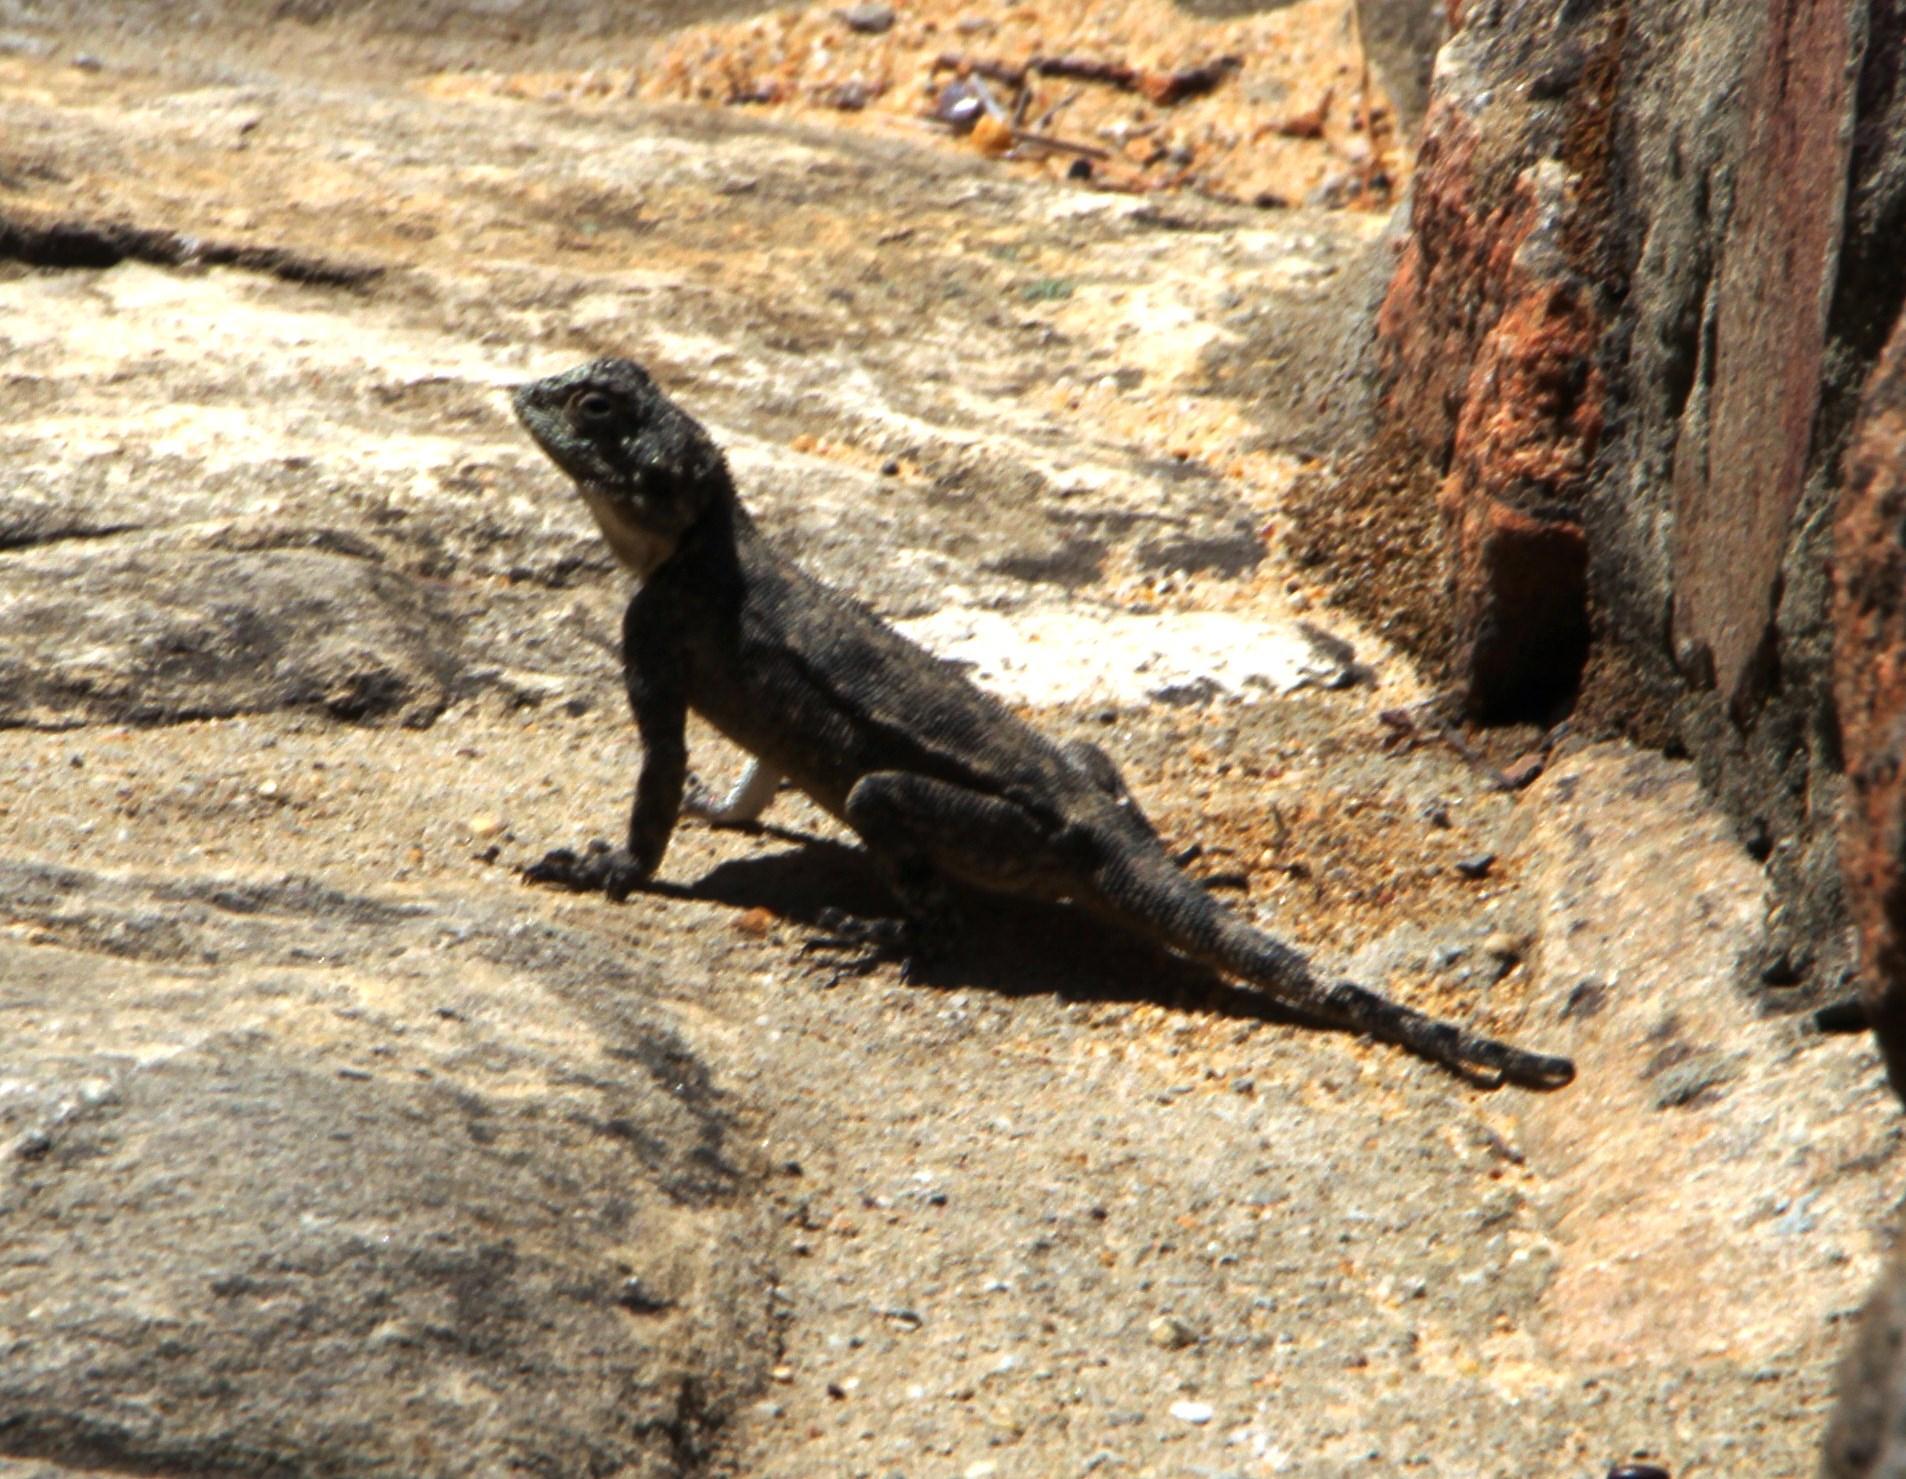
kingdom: Animalia
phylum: Chordata
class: Squamata
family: Agamidae
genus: Agama
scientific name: Agama atra
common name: Southern african rock agama
